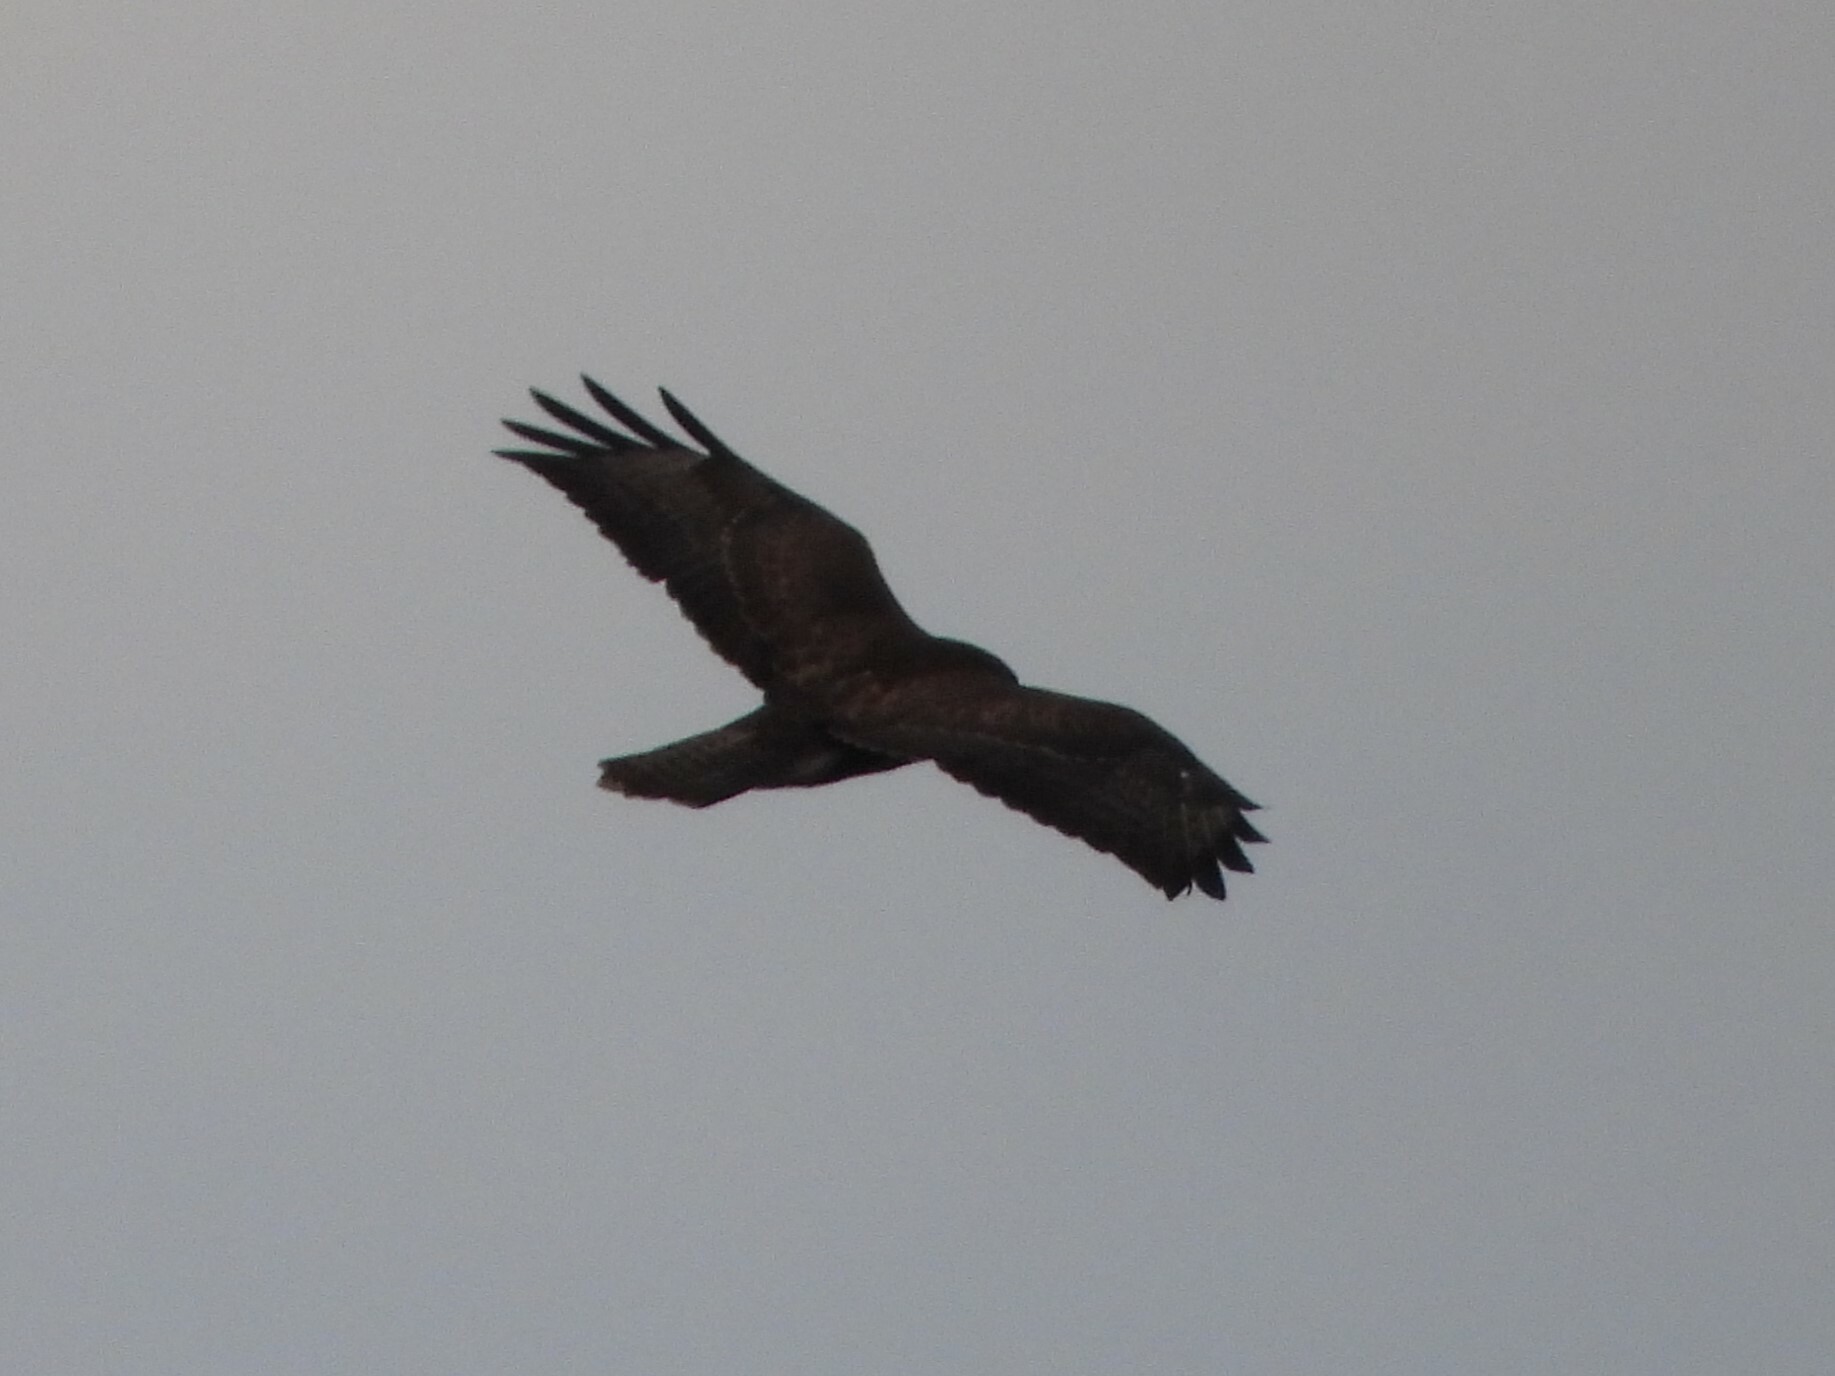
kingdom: Animalia
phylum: Chordata
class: Aves
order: Accipitriformes
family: Accipitridae
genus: Buteo
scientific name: Buteo buteo
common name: Common buzzard
